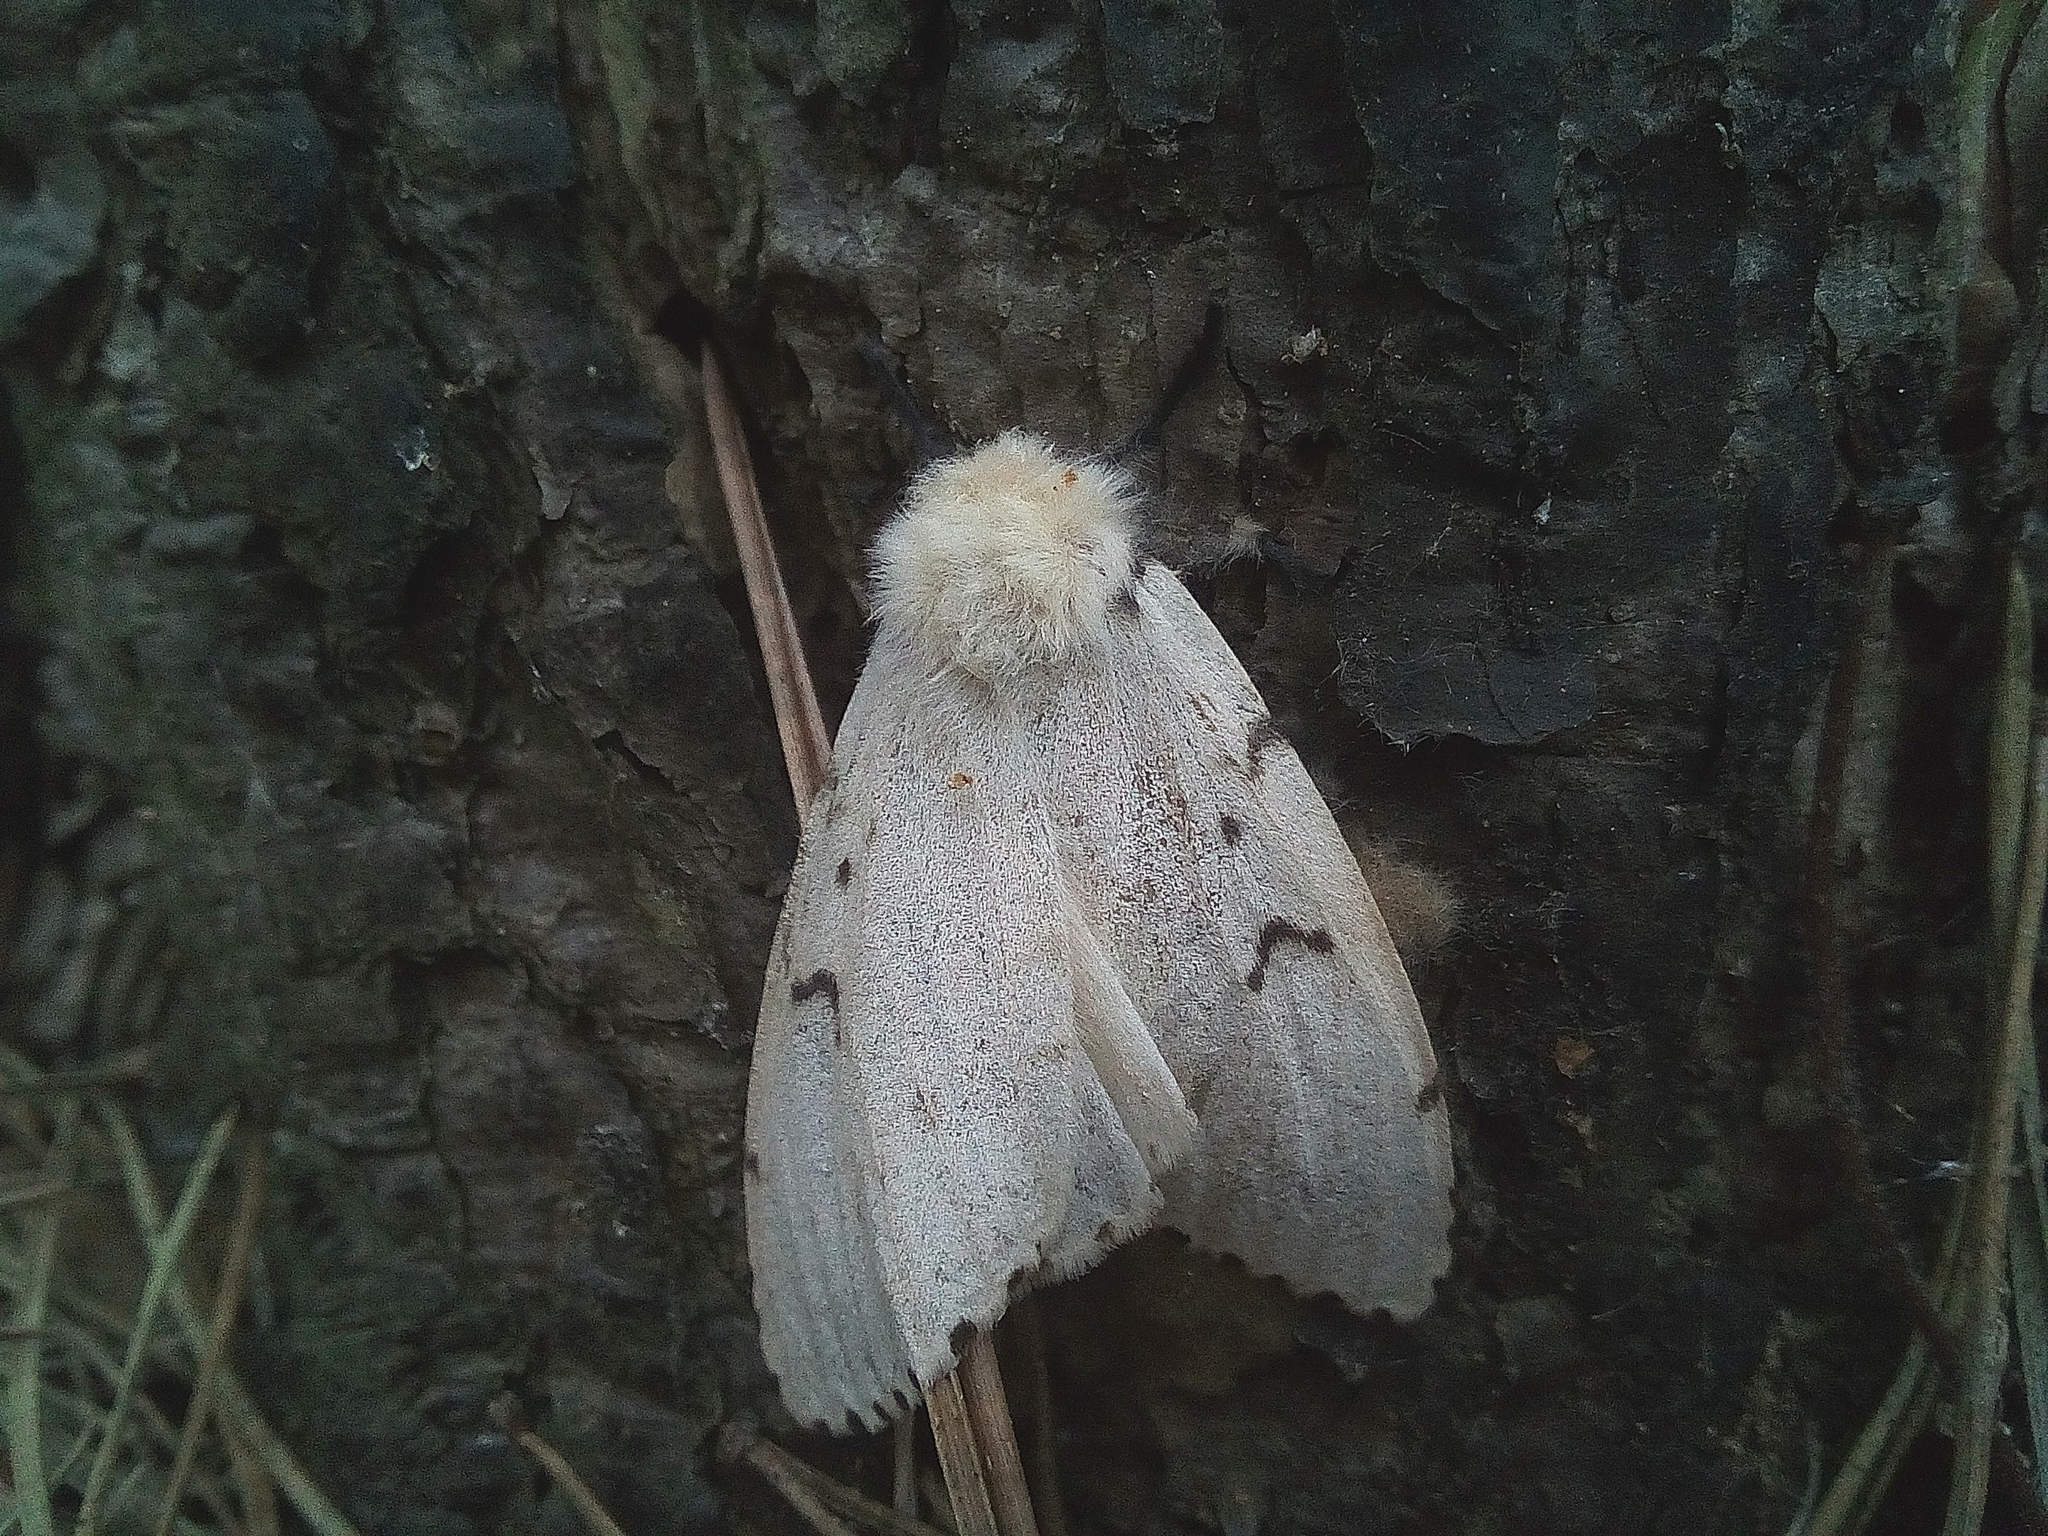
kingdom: Animalia
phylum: Arthropoda
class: Insecta
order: Lepidoptera
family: Erebidae
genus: Lymantria
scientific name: Lymantria dispar
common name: Gypsy moth
